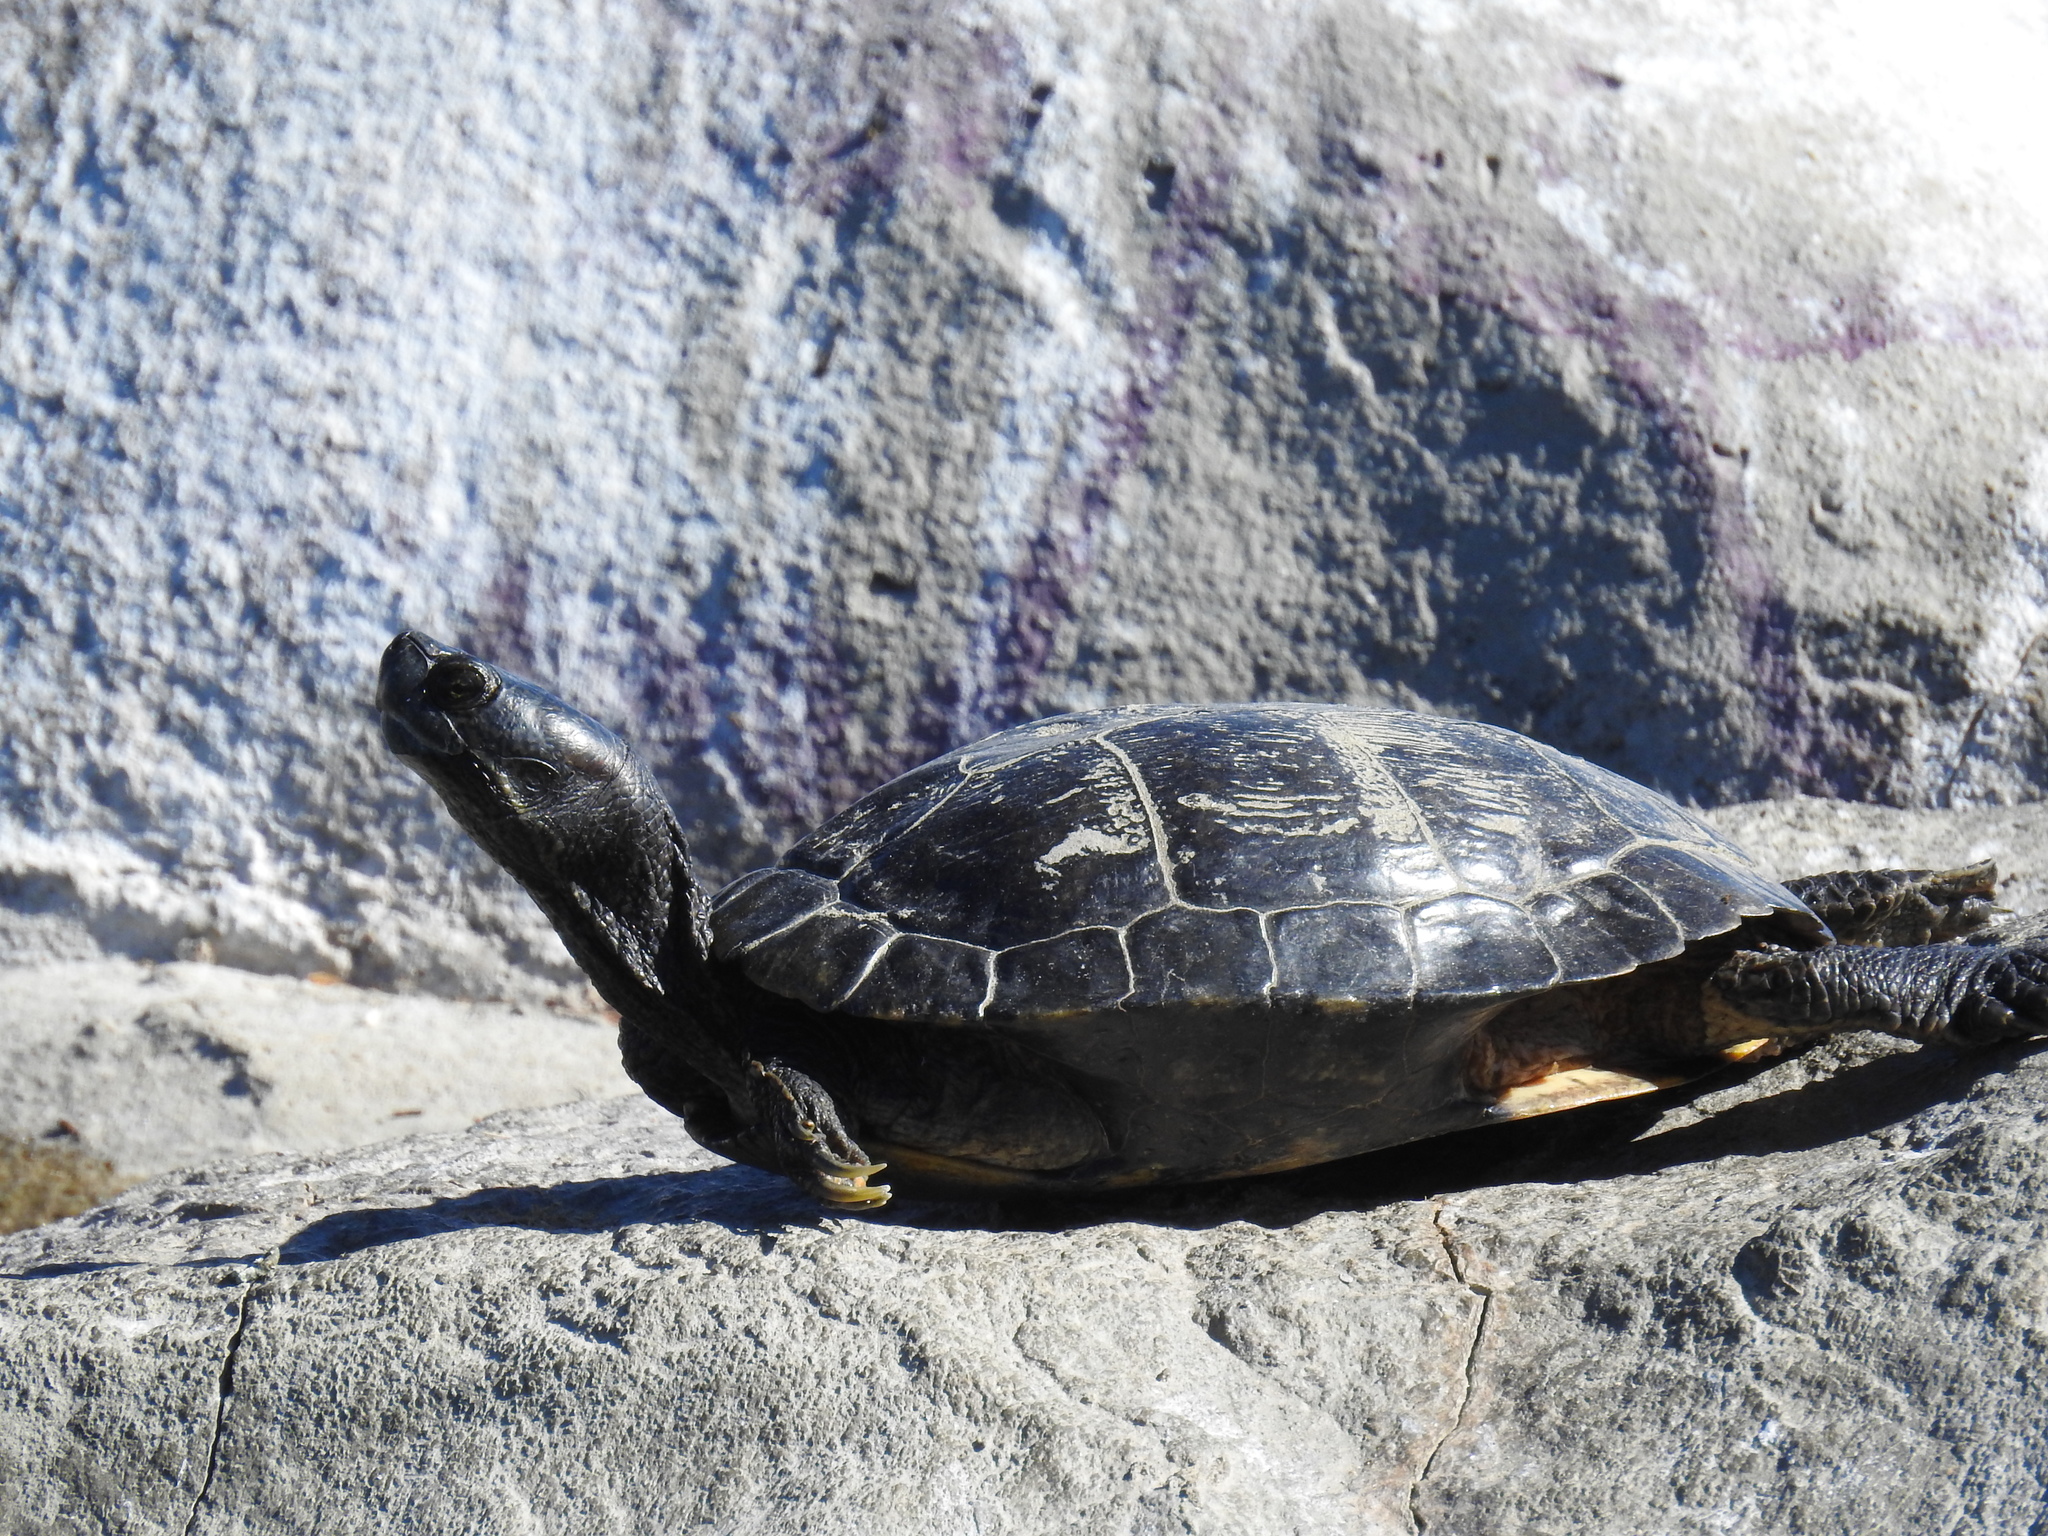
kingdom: Animalia
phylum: Chordata
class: Testudines
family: Emydidae
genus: Trachemys
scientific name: Trachemys scripta
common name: Slider
